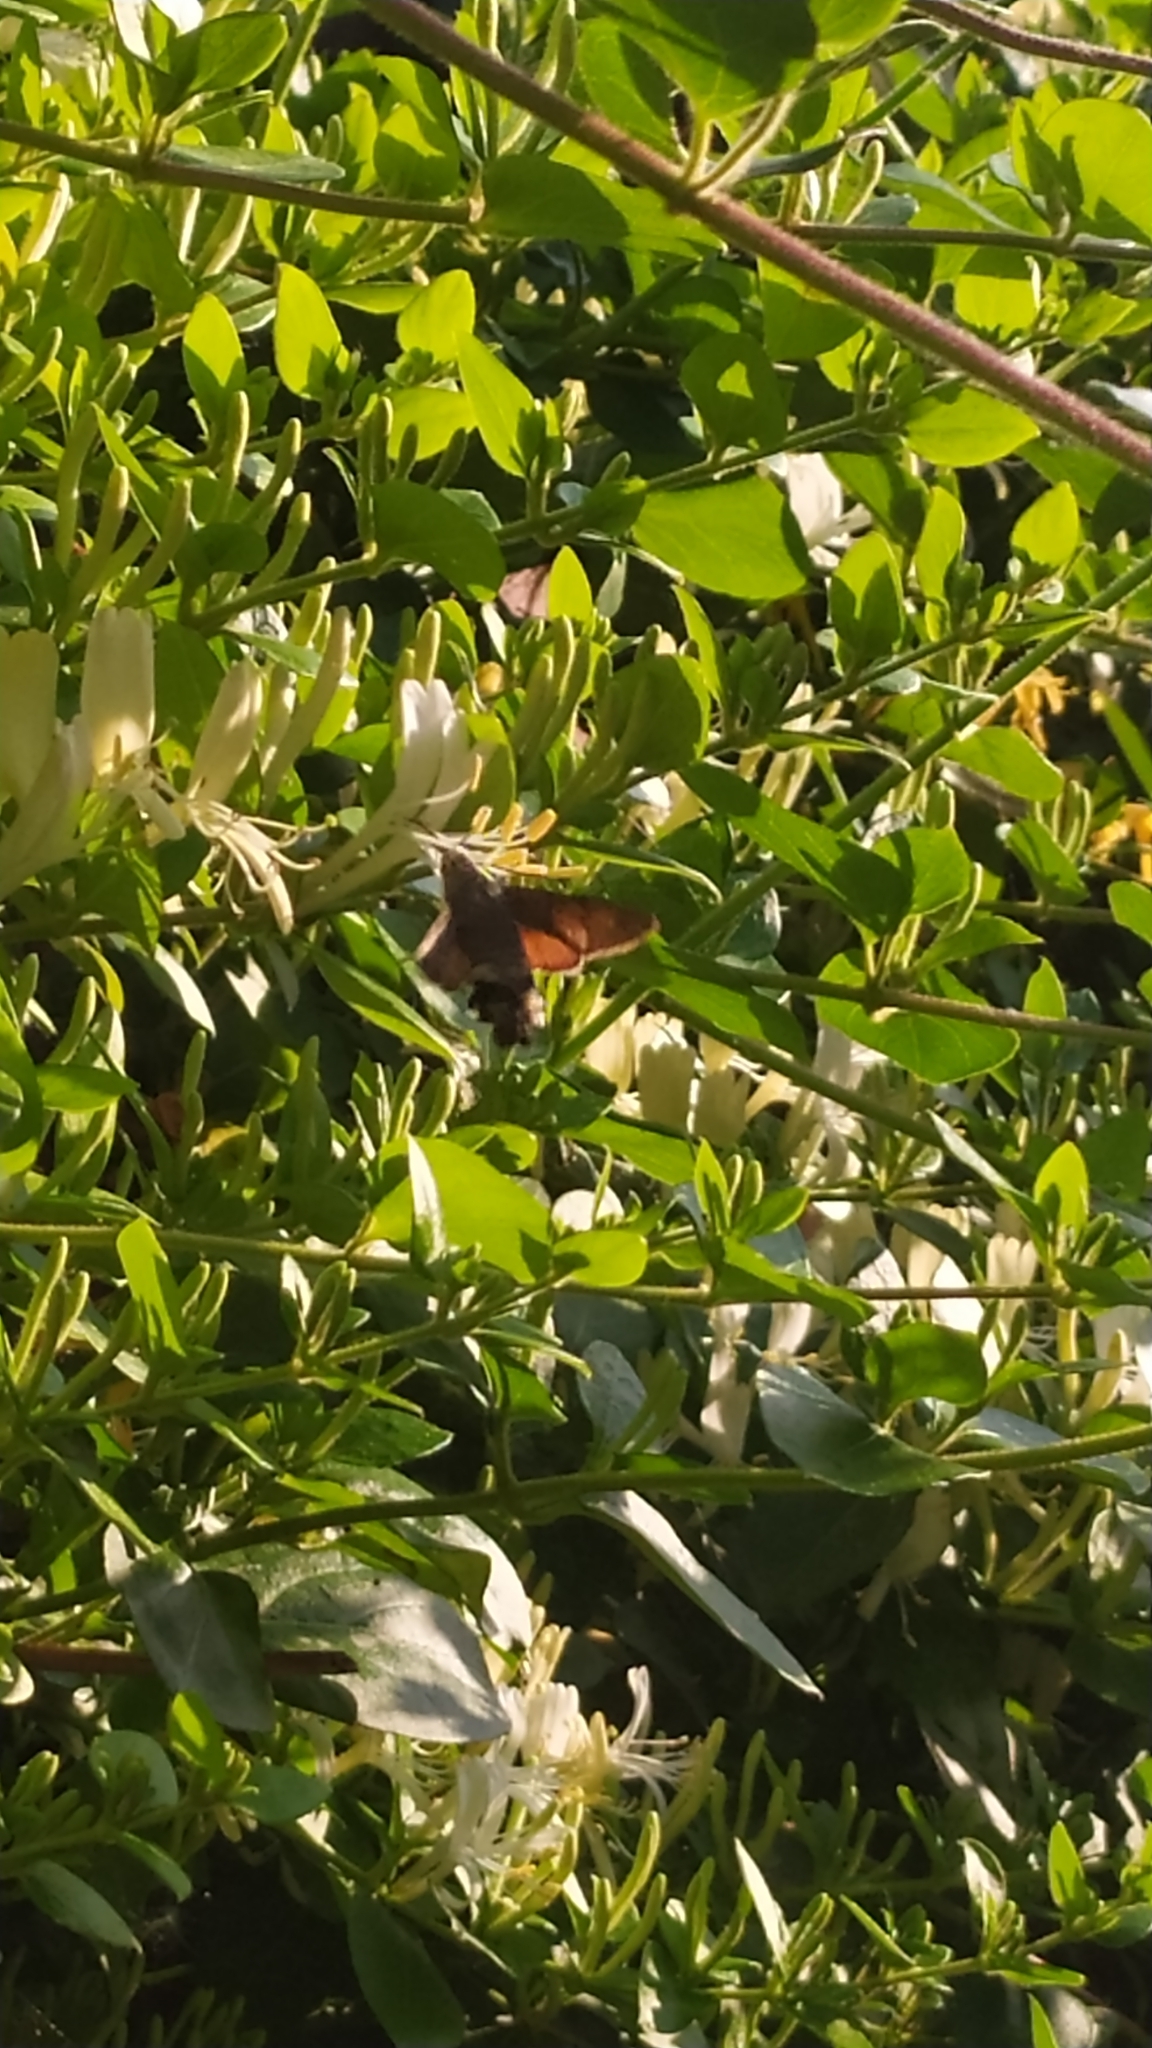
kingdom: Animalia
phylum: Arthropoda
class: Insecta
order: Lepidoptera
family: Sphingidae
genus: Macroglossum
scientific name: Macroglossum stellatarum
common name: Humming-bird hawk-moth
